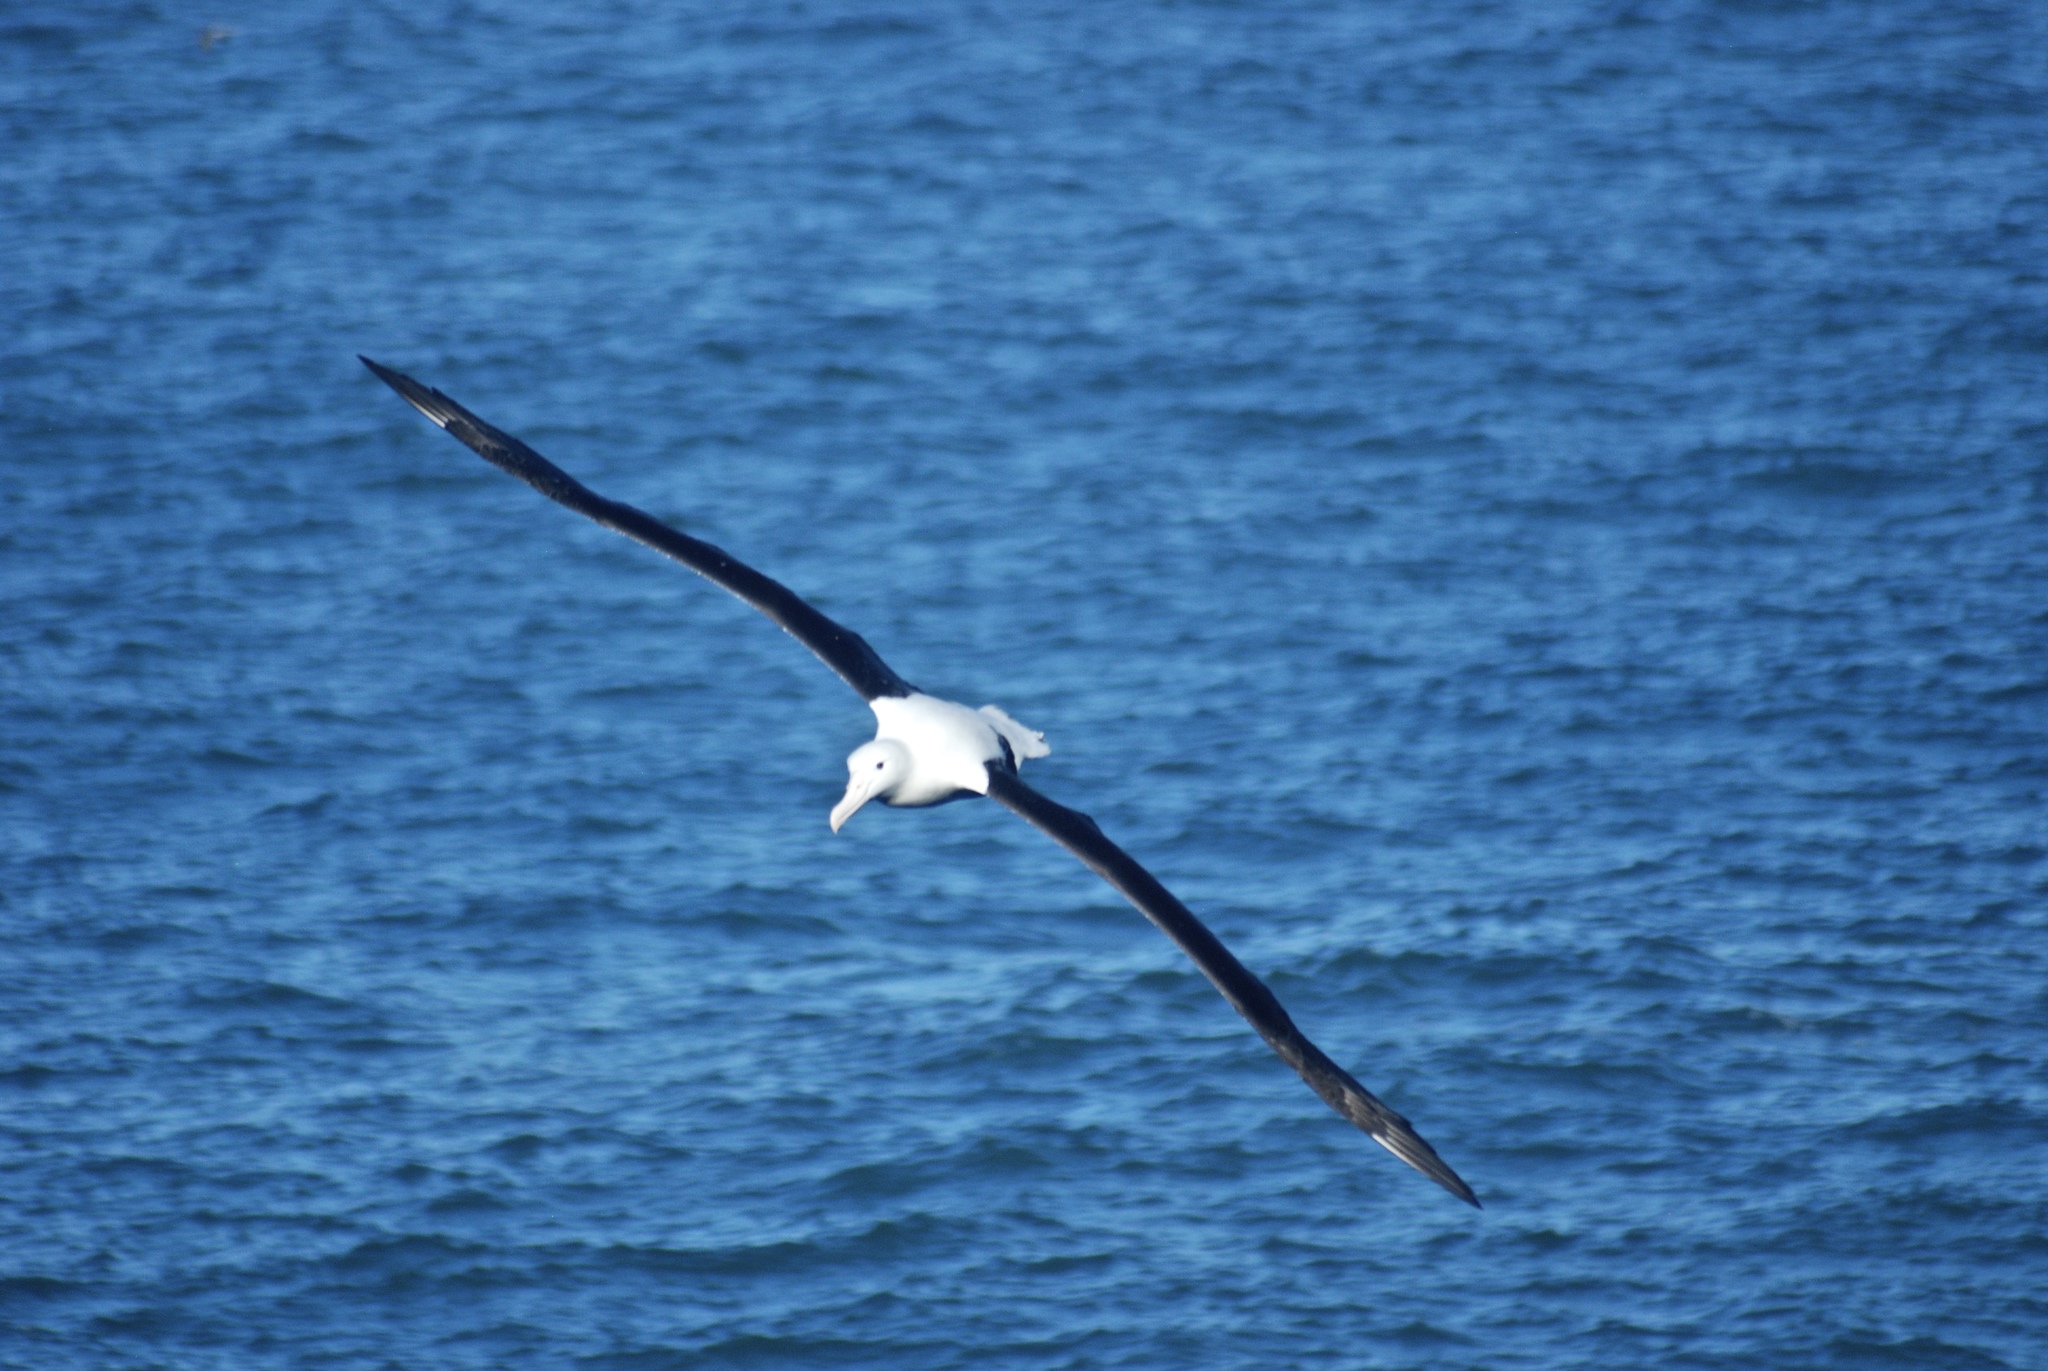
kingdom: Animalia
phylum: Chordata
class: Aves
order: Procellariiformes
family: Diomedeidae
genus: Diomedea
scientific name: Diomedea sanfordi
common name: Northern royal albatross
